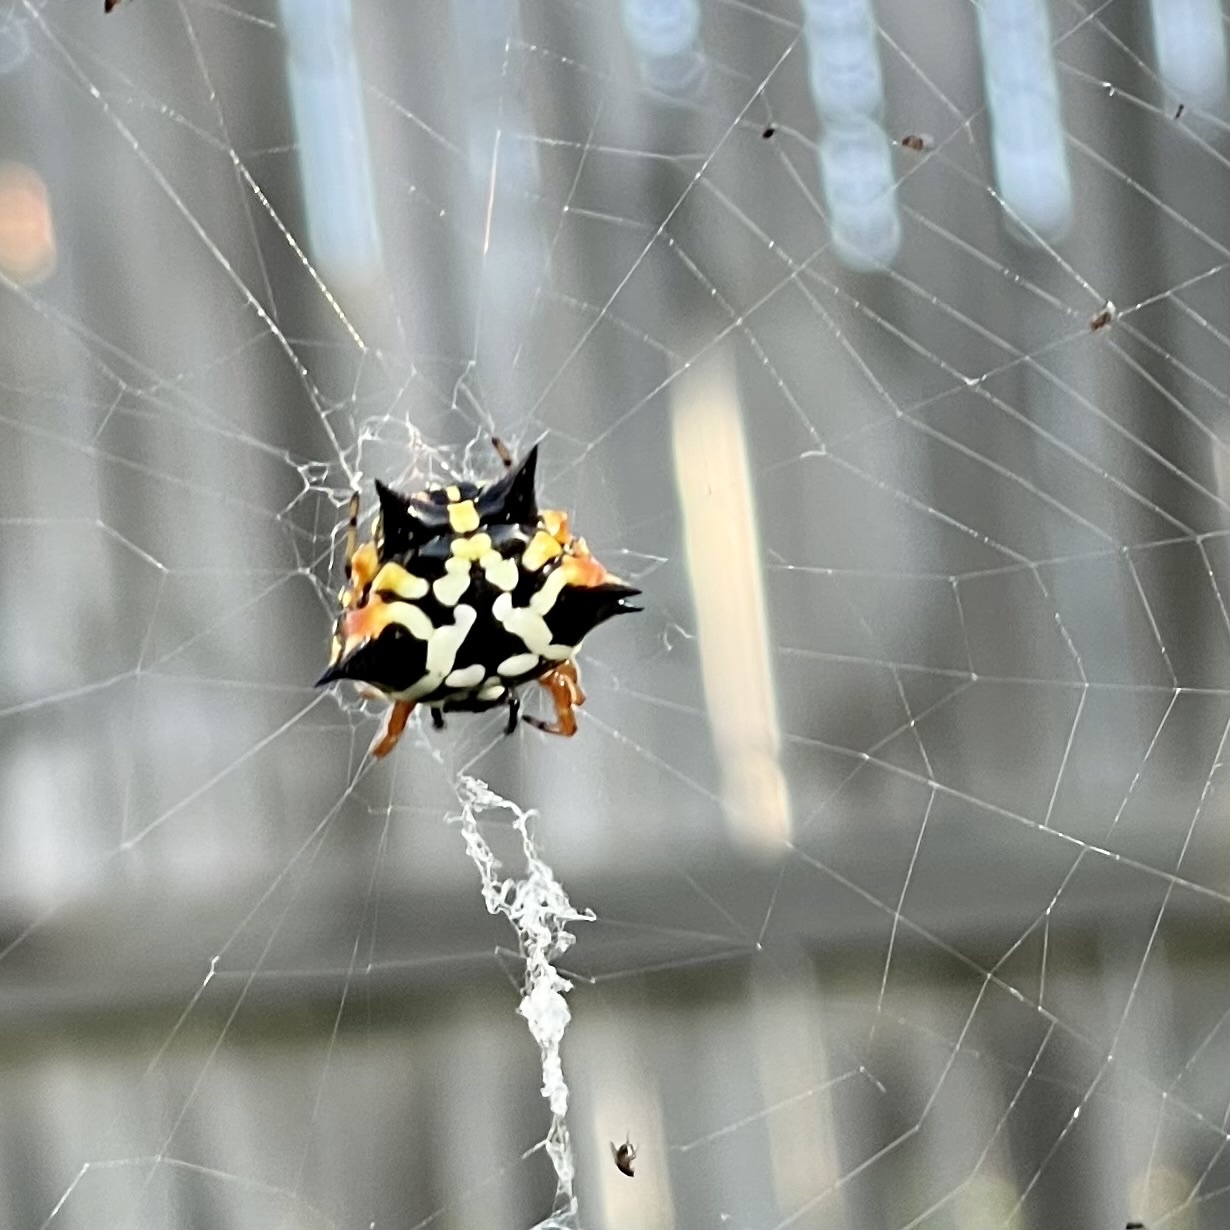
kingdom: Animalia
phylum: Arthropoda
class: Arachnida
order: Araneae
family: Araneidae
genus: Austracantha
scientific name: Austracantha minax
